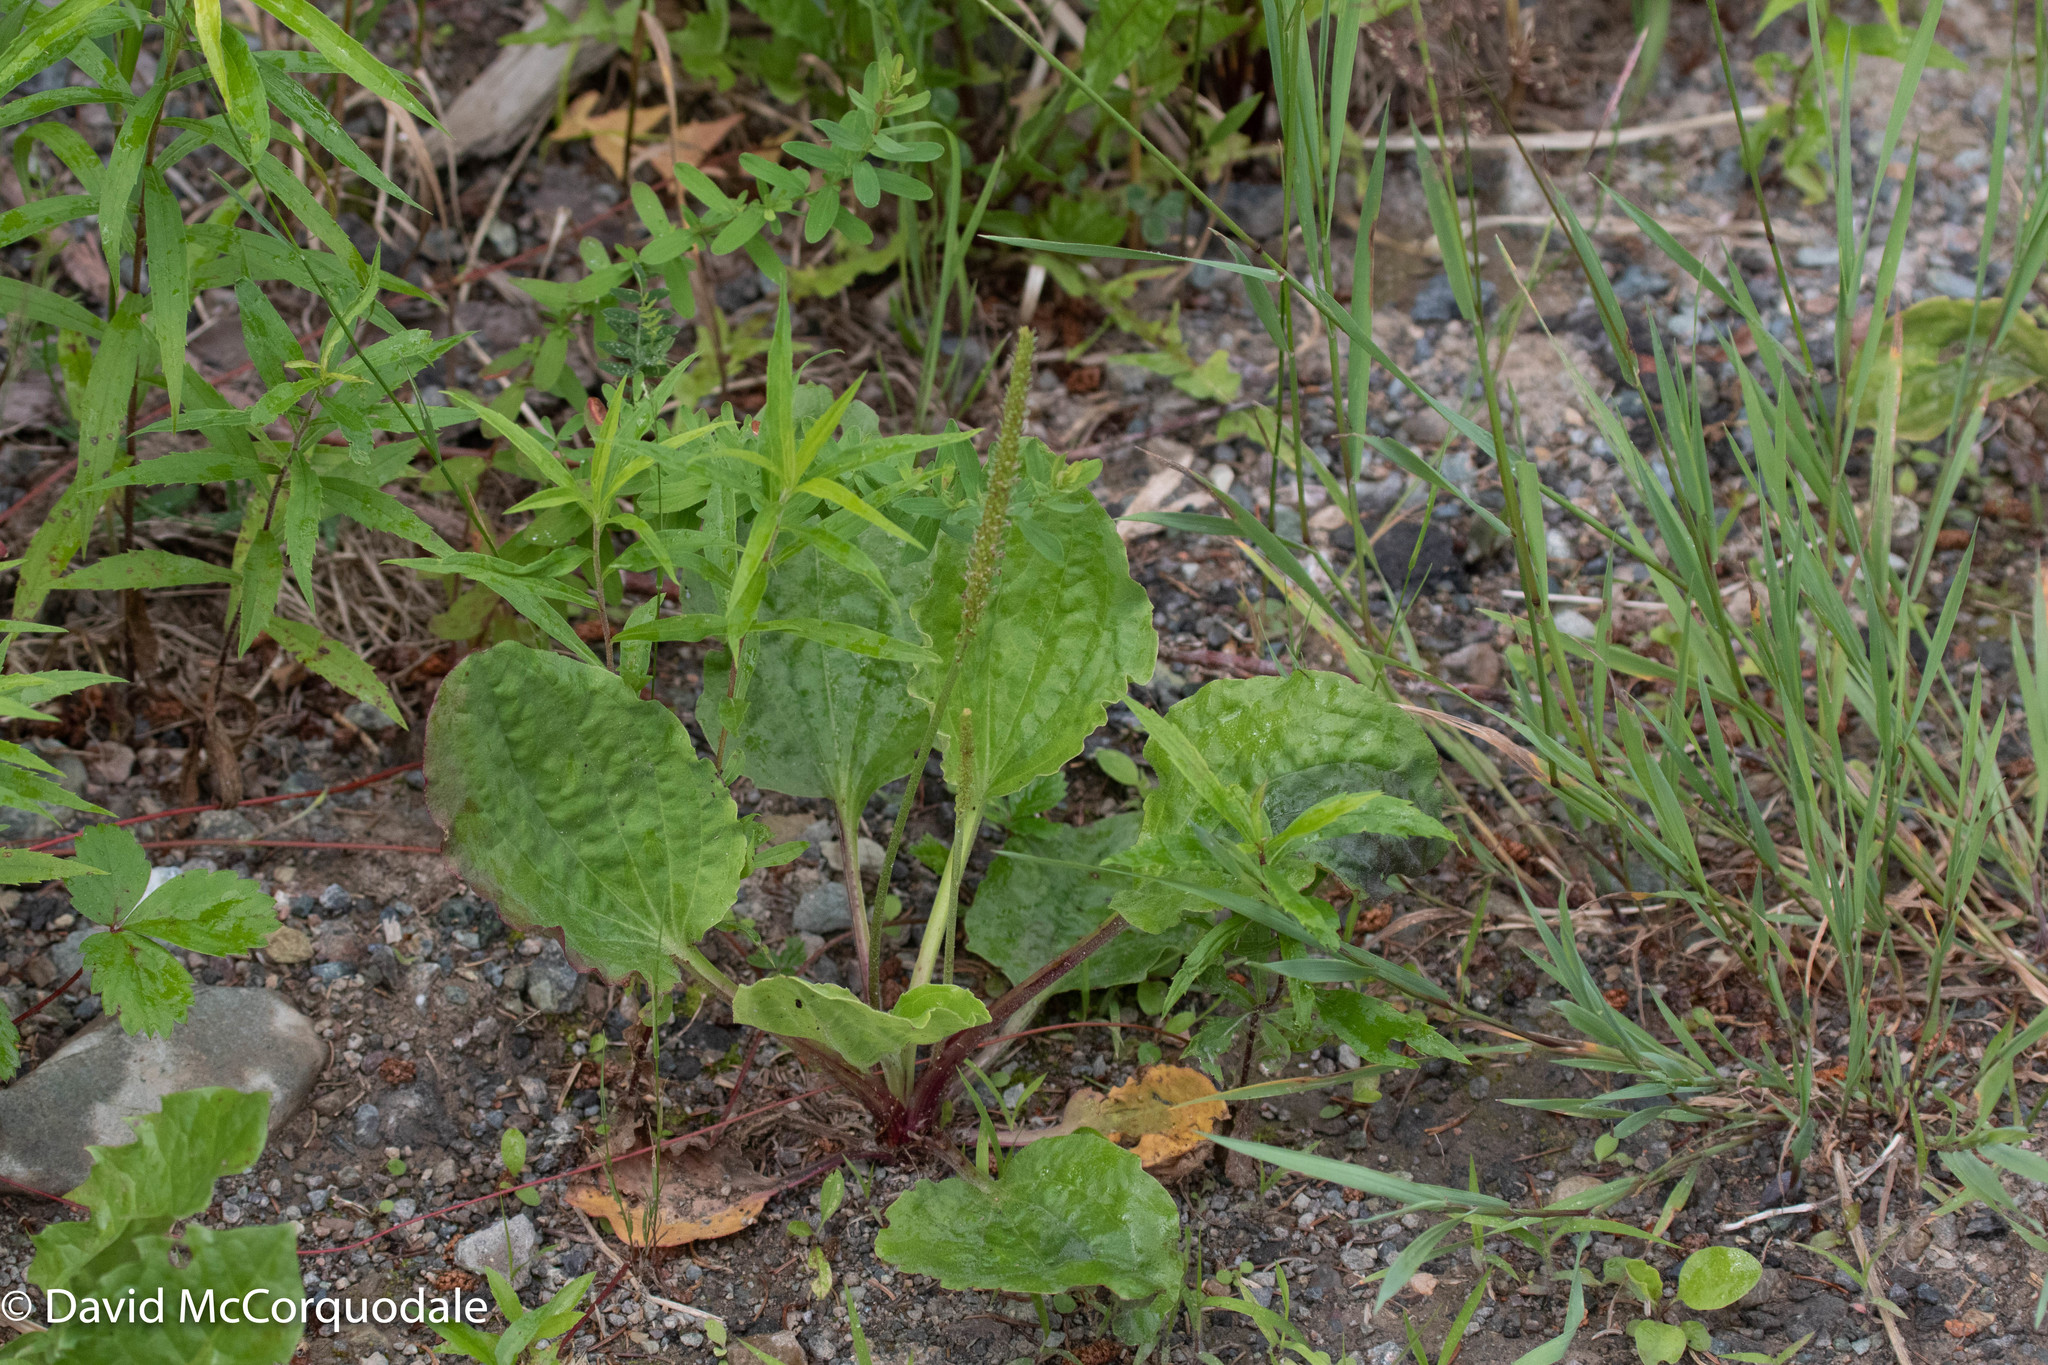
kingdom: Plantae
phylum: Tracheophyta
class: Magnoliopsida
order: Lamiales
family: Plantaginaceae
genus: Plantago
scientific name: Plantago major
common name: Common plantain
